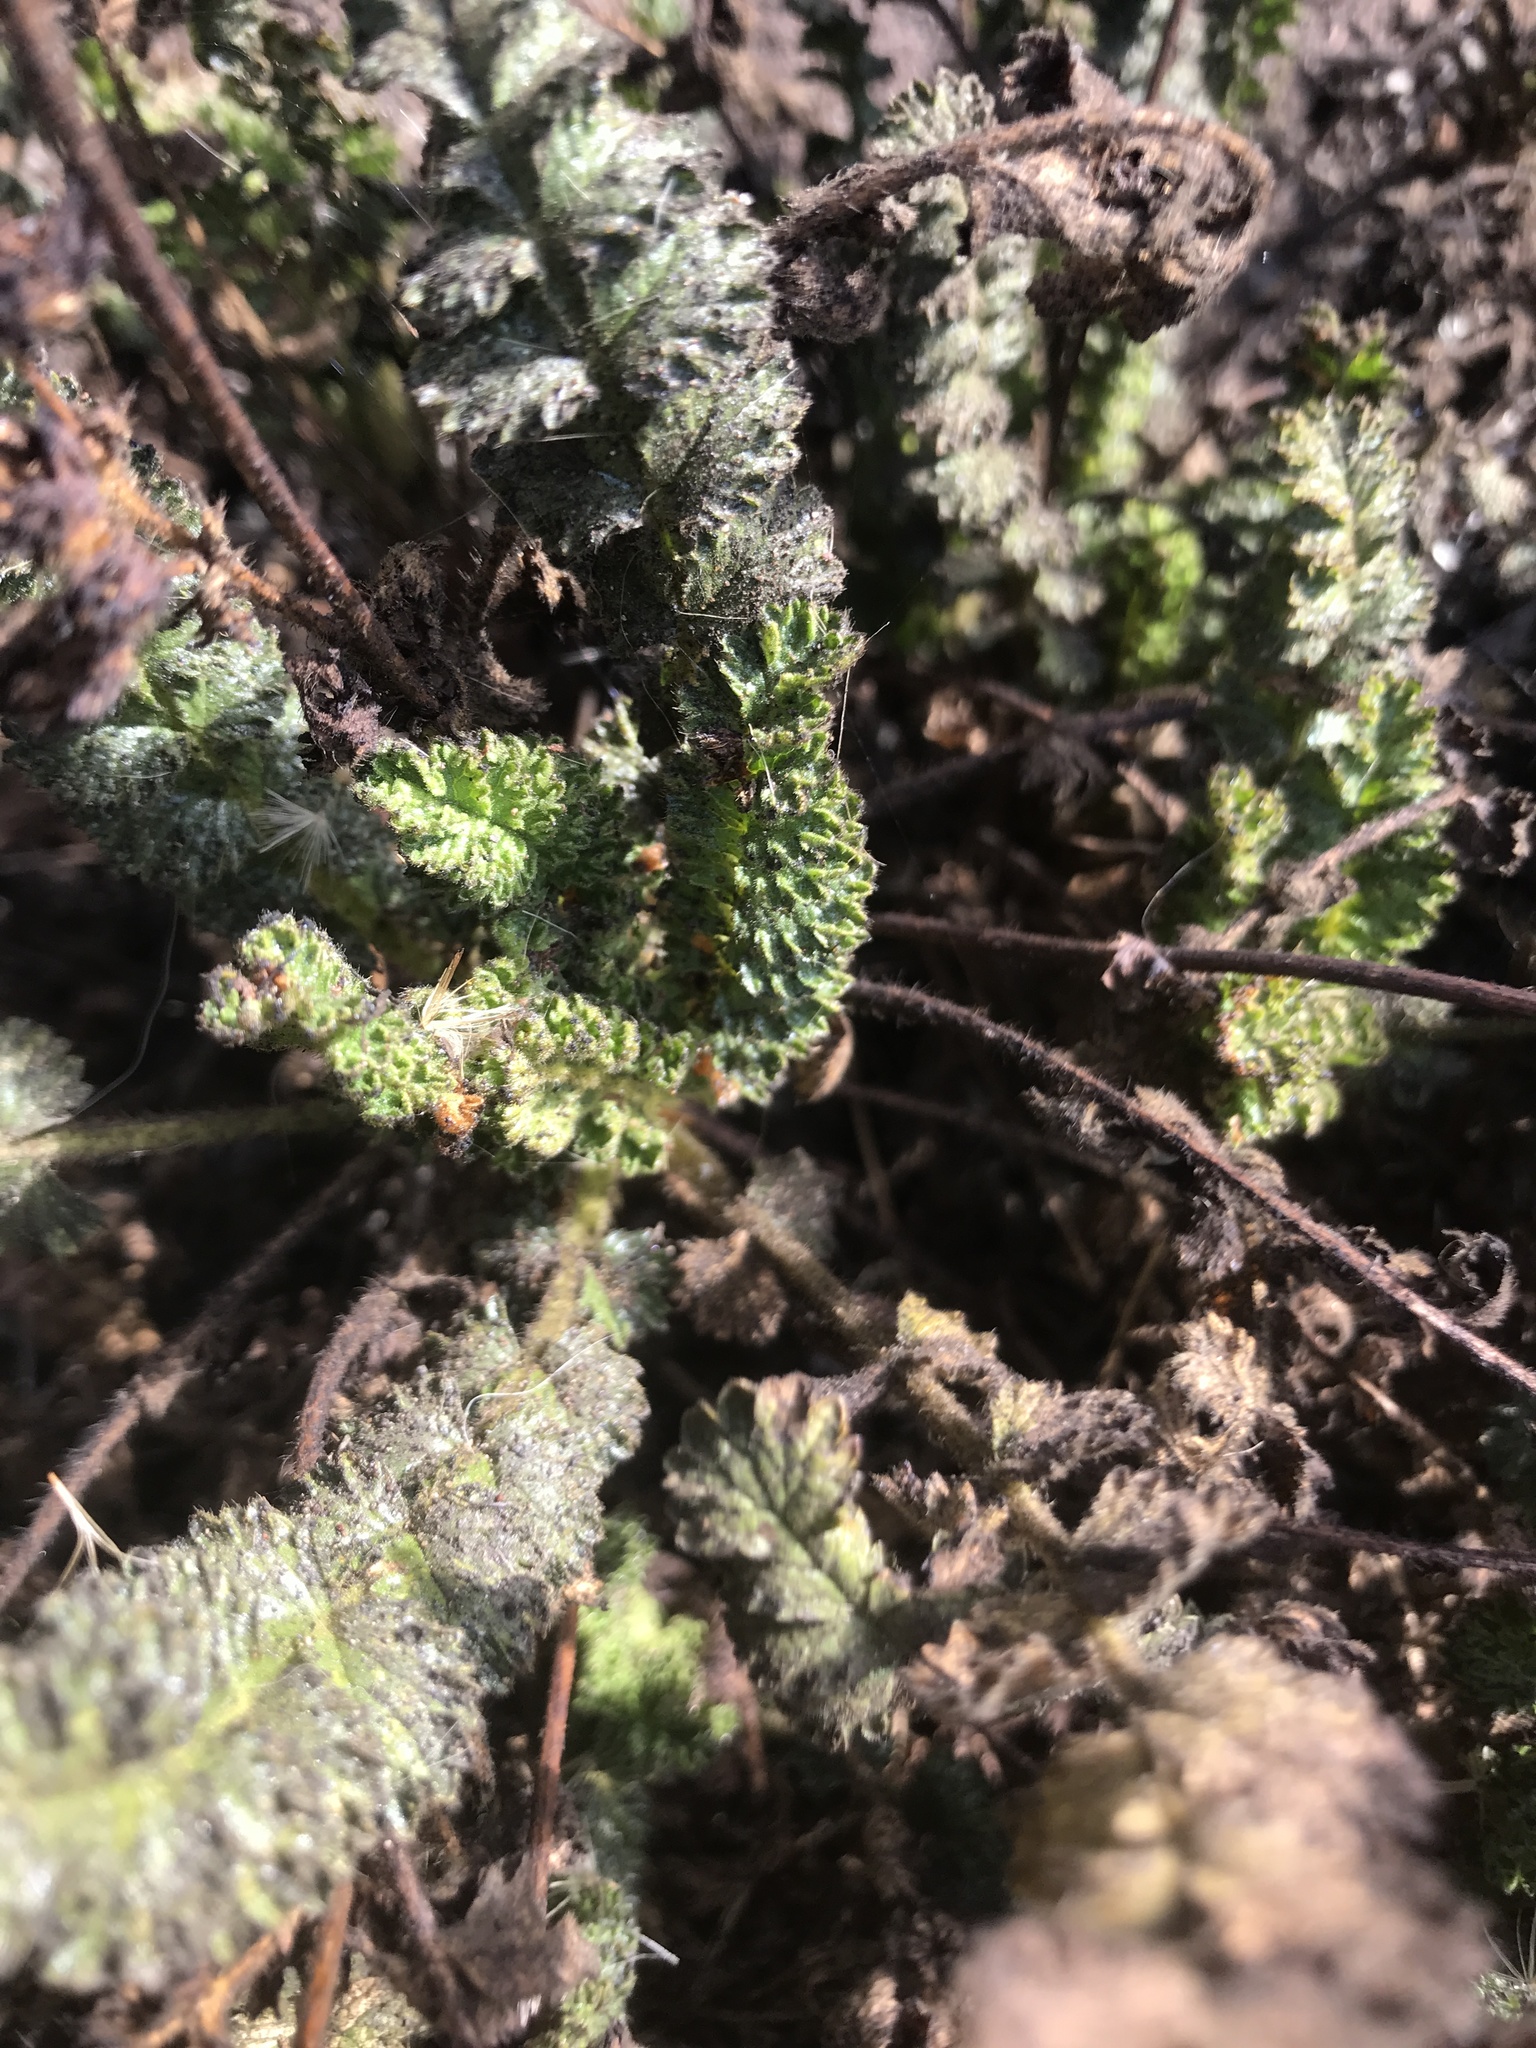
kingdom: Plantae
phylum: Tracheophyta
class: Magnoliopsida
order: Rosales
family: Rosaceae
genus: Potentilla
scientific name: Potentilla
